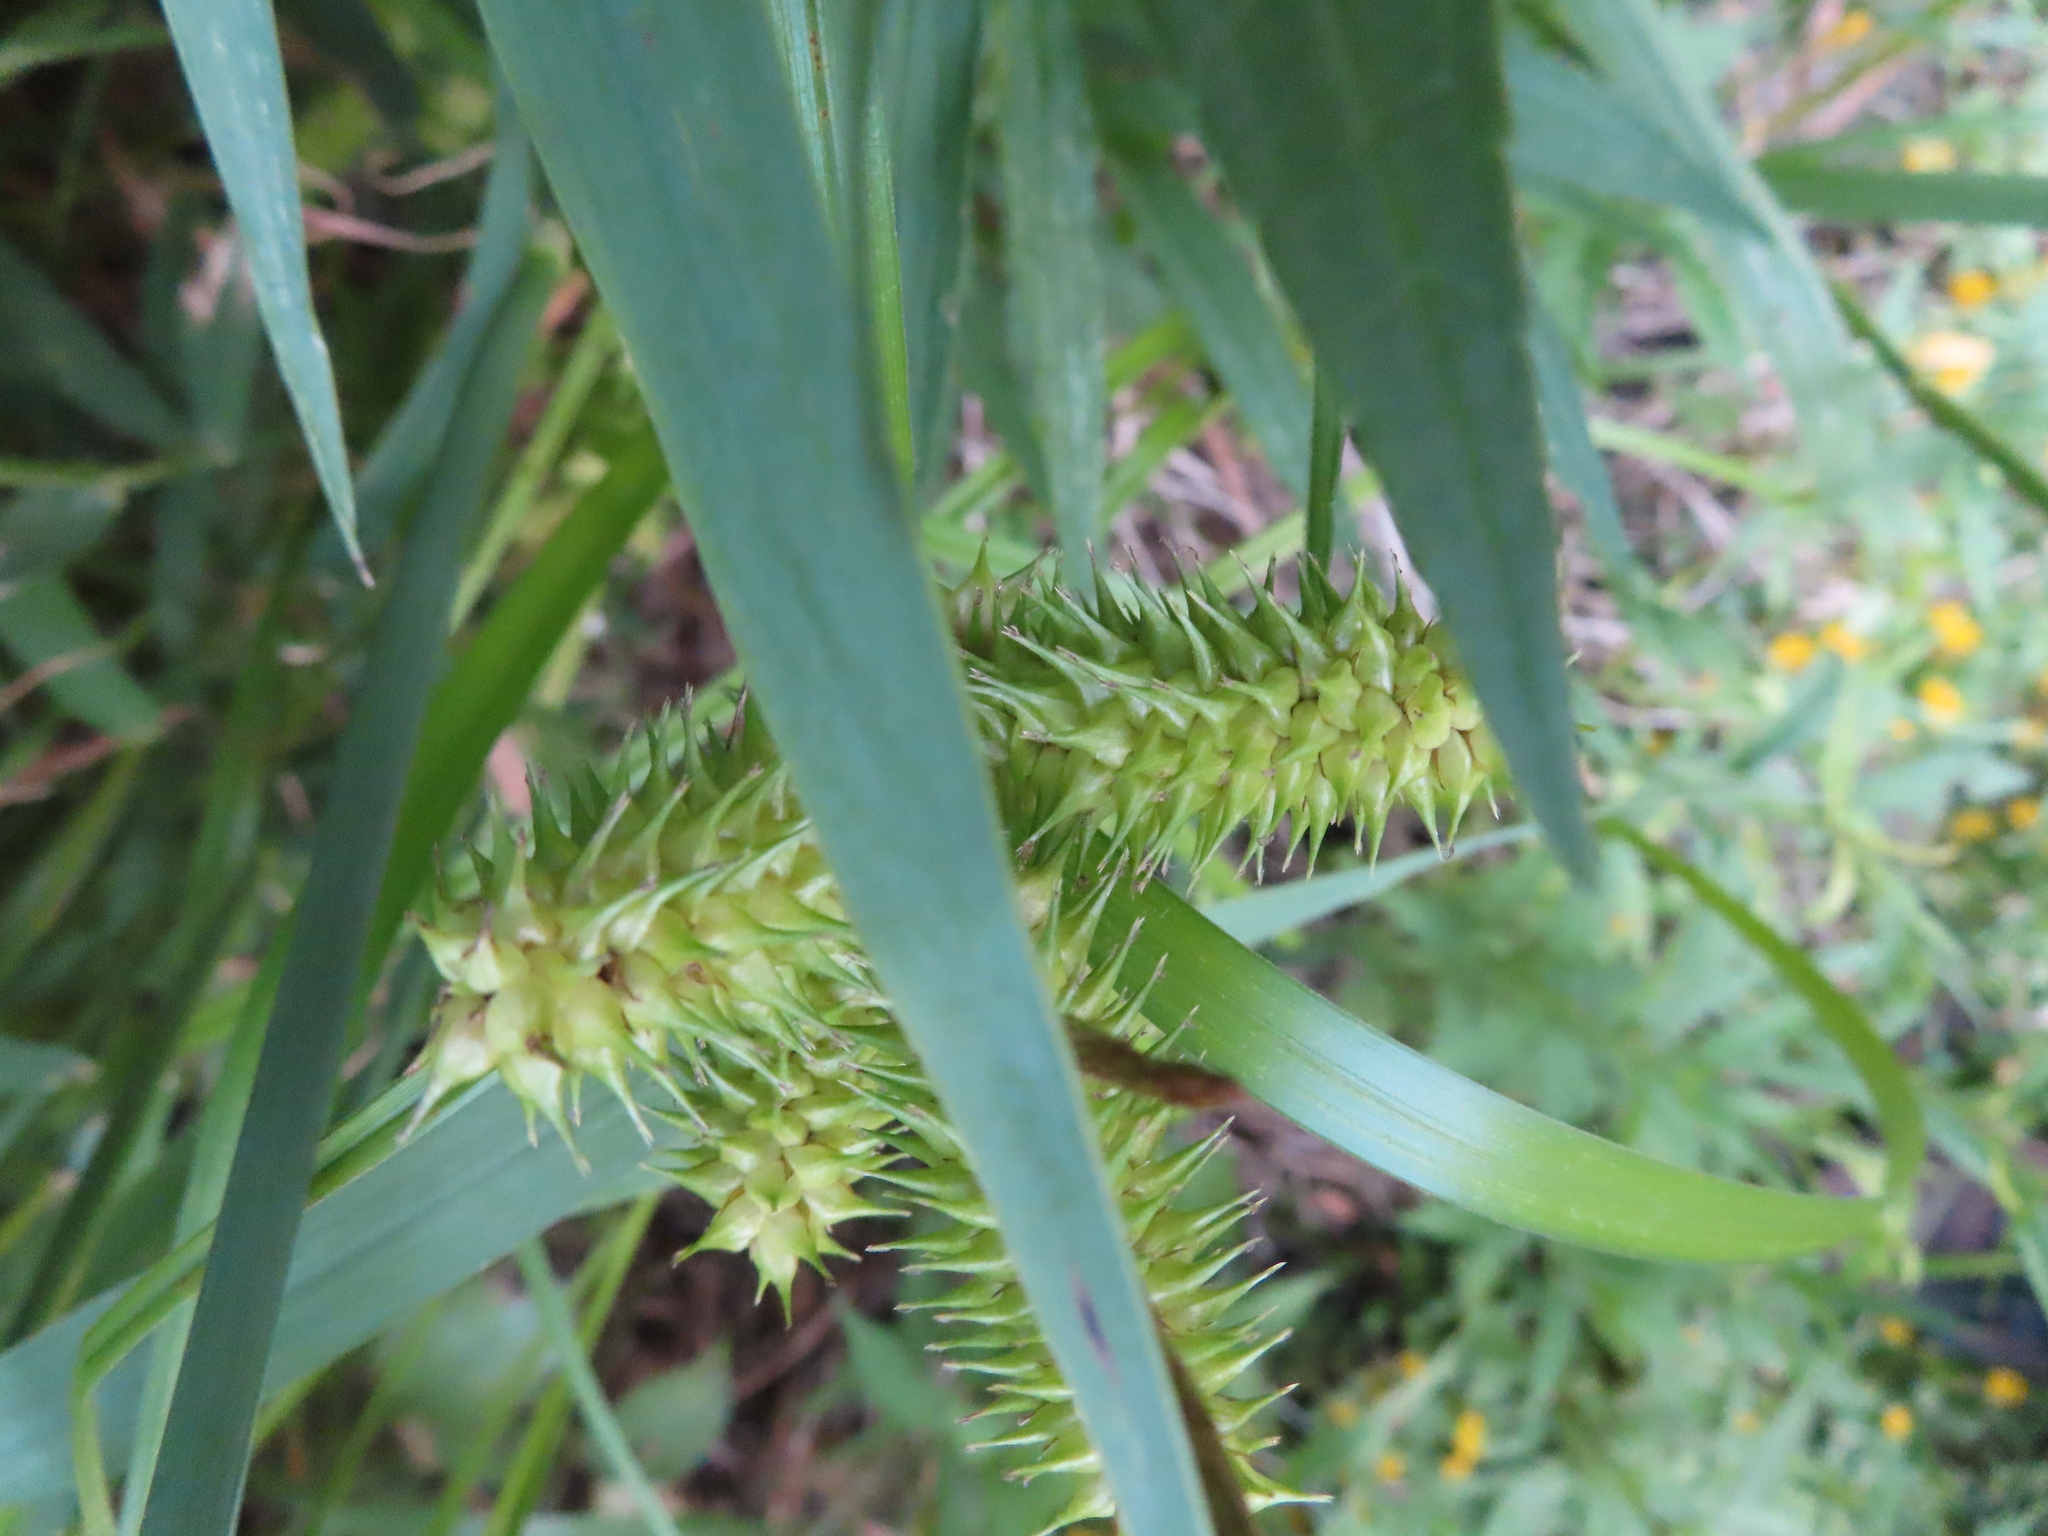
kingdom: Plantae
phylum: Tracheophyta
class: Liliopsida
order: Poales
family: Cyperaceae
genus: Carex
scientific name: Carex retrorsa
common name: Knot-sheath sedge
